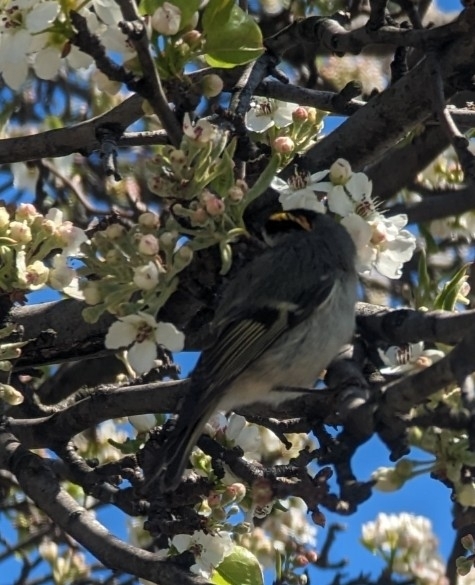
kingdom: Animalia
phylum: Chordata
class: Aves
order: Passeriformes
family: Regulidae
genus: Regulus
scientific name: Regulus satrapa
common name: Golden-crowned kinglet
